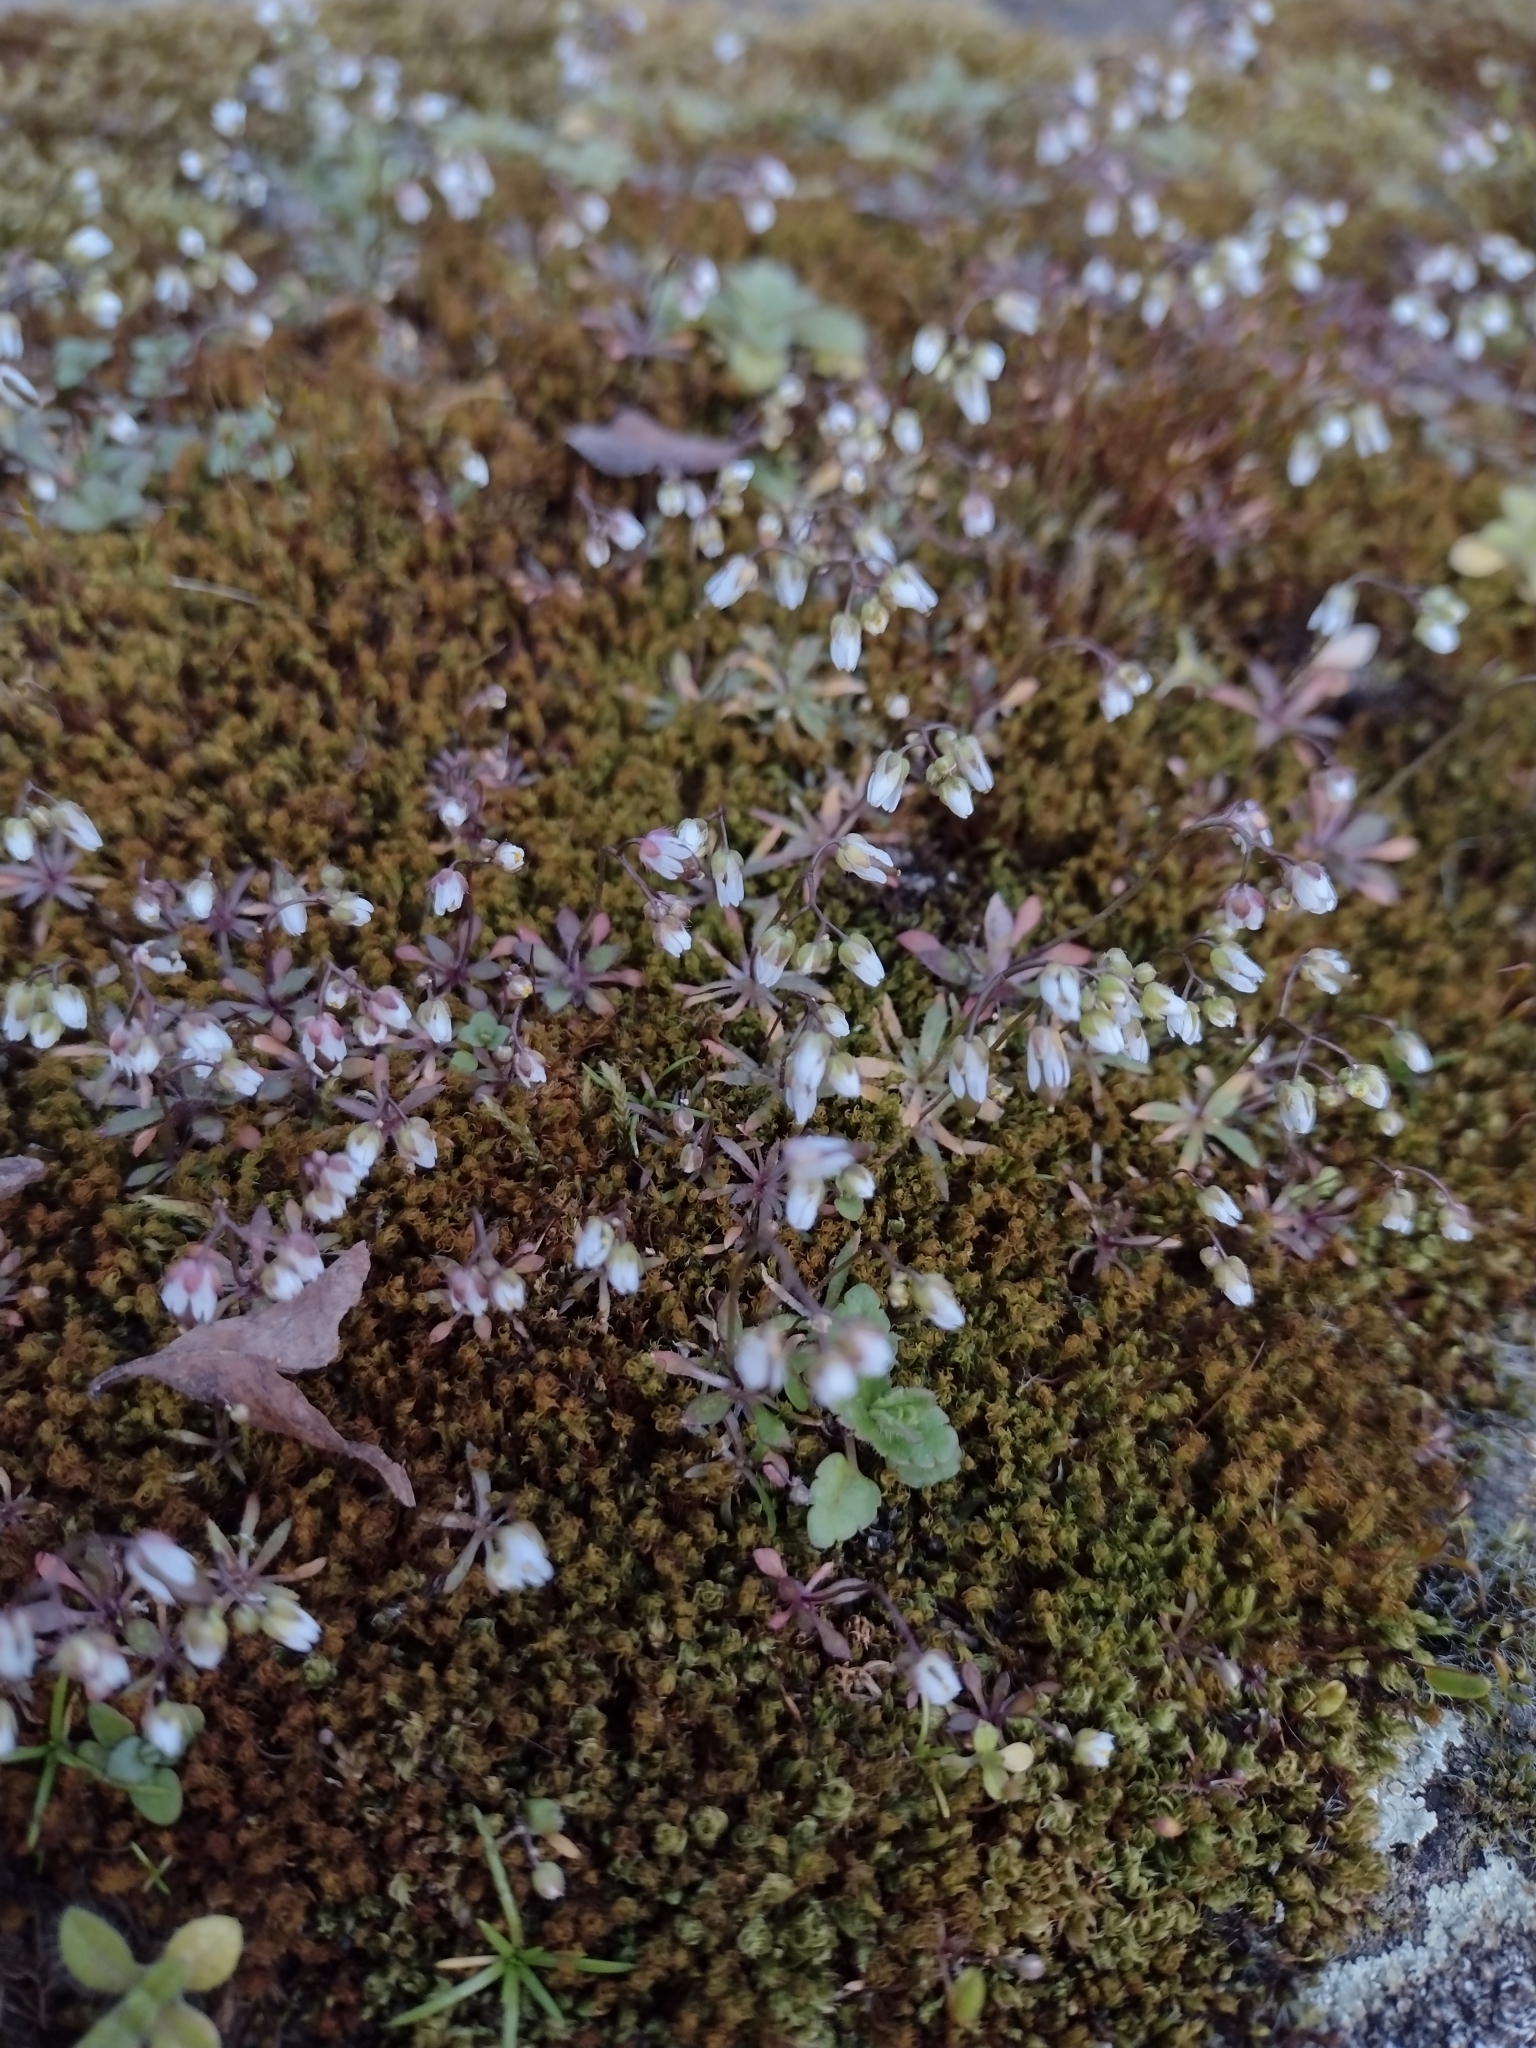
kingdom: Plantae
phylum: Tracheophyta
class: Magnoliopsida
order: Brassicales
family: Brassicaceae
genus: Draba
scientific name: Draba verna
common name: Spring draba
